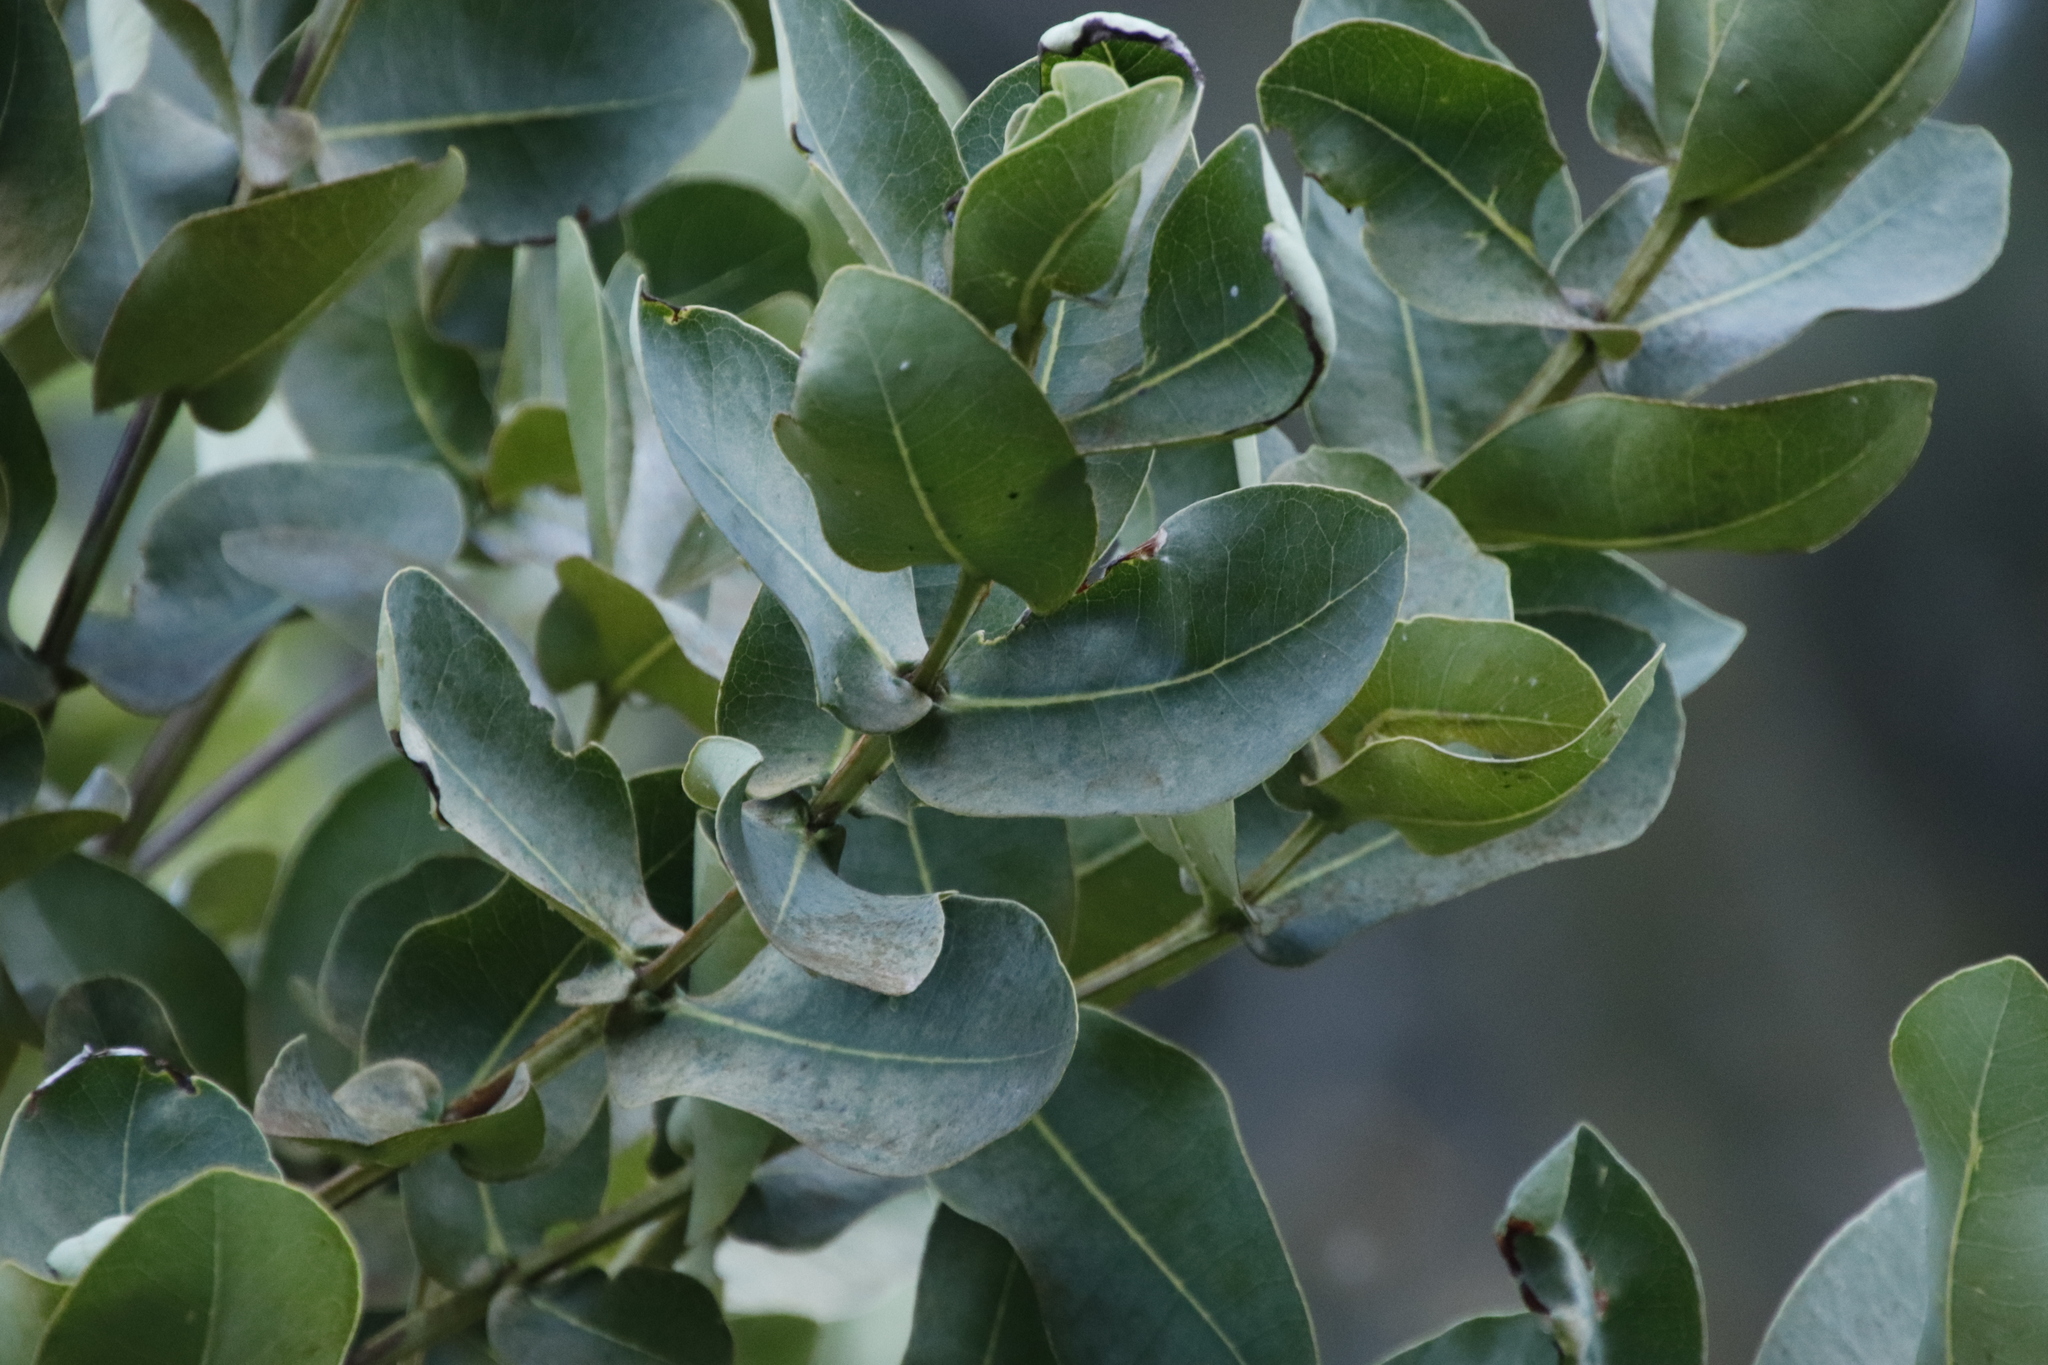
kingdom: Plantae
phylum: Tracheophyta
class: Magnoliopsida
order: Myrtales
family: Myrtaceae
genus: Syzygium
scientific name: Syzygium cordatum
